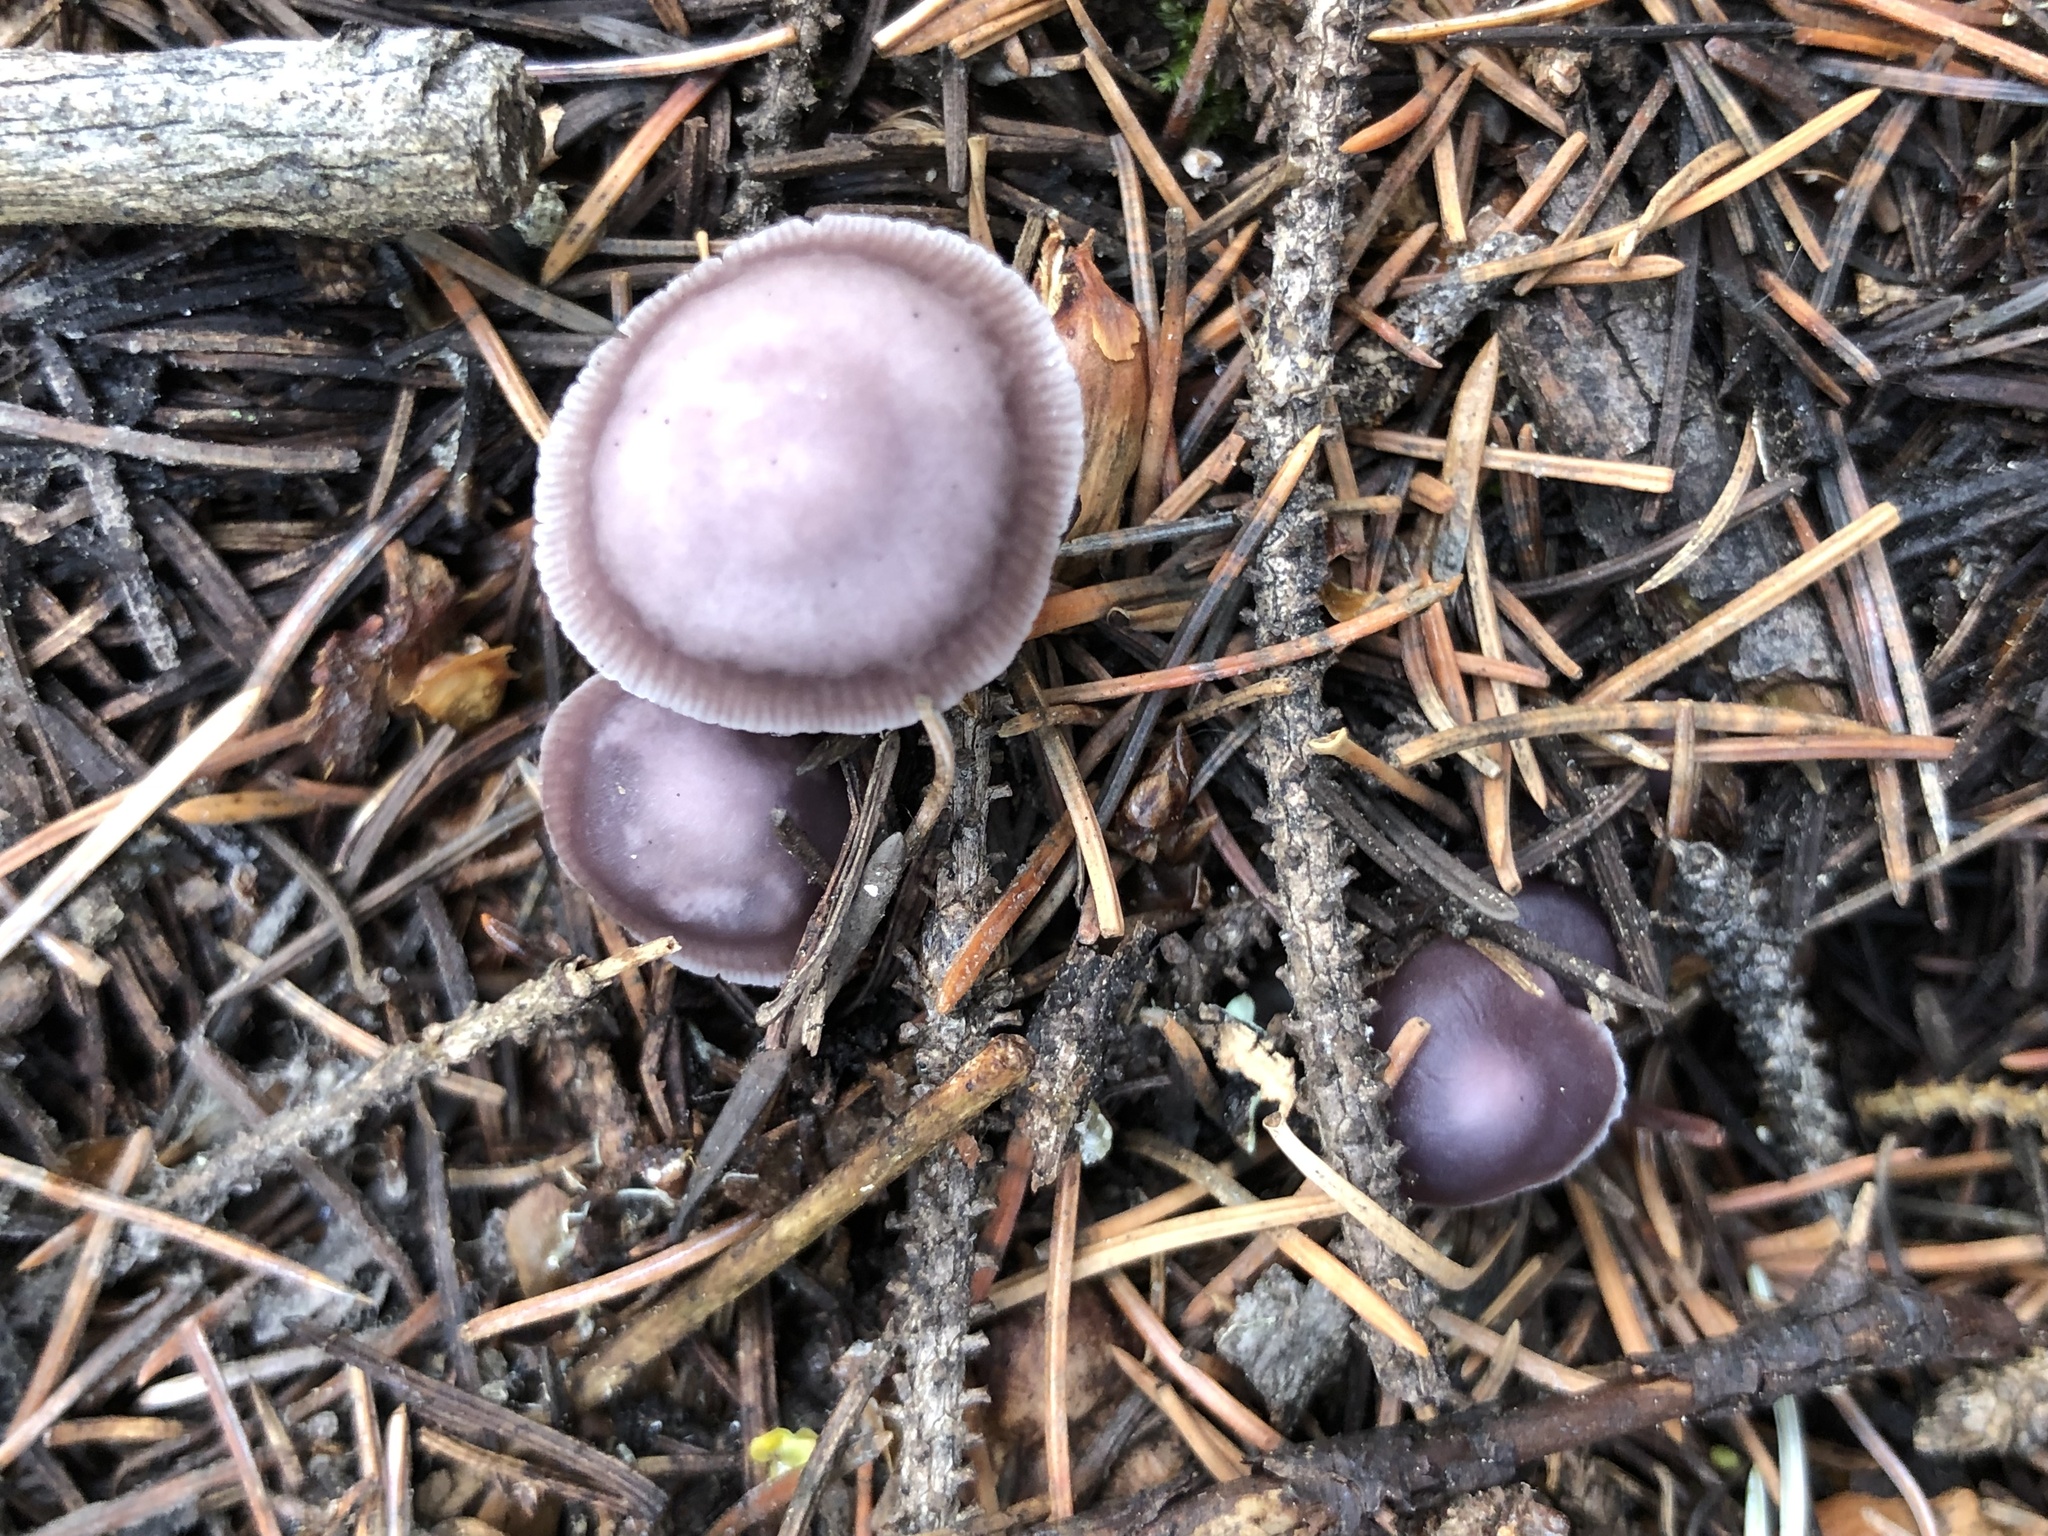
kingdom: Fungi
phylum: Basidiomycota
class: Agaricomycetes
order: Agaricales
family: Mycenaceae
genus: Mycena
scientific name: Mycena pura
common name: Lilac bonnet
